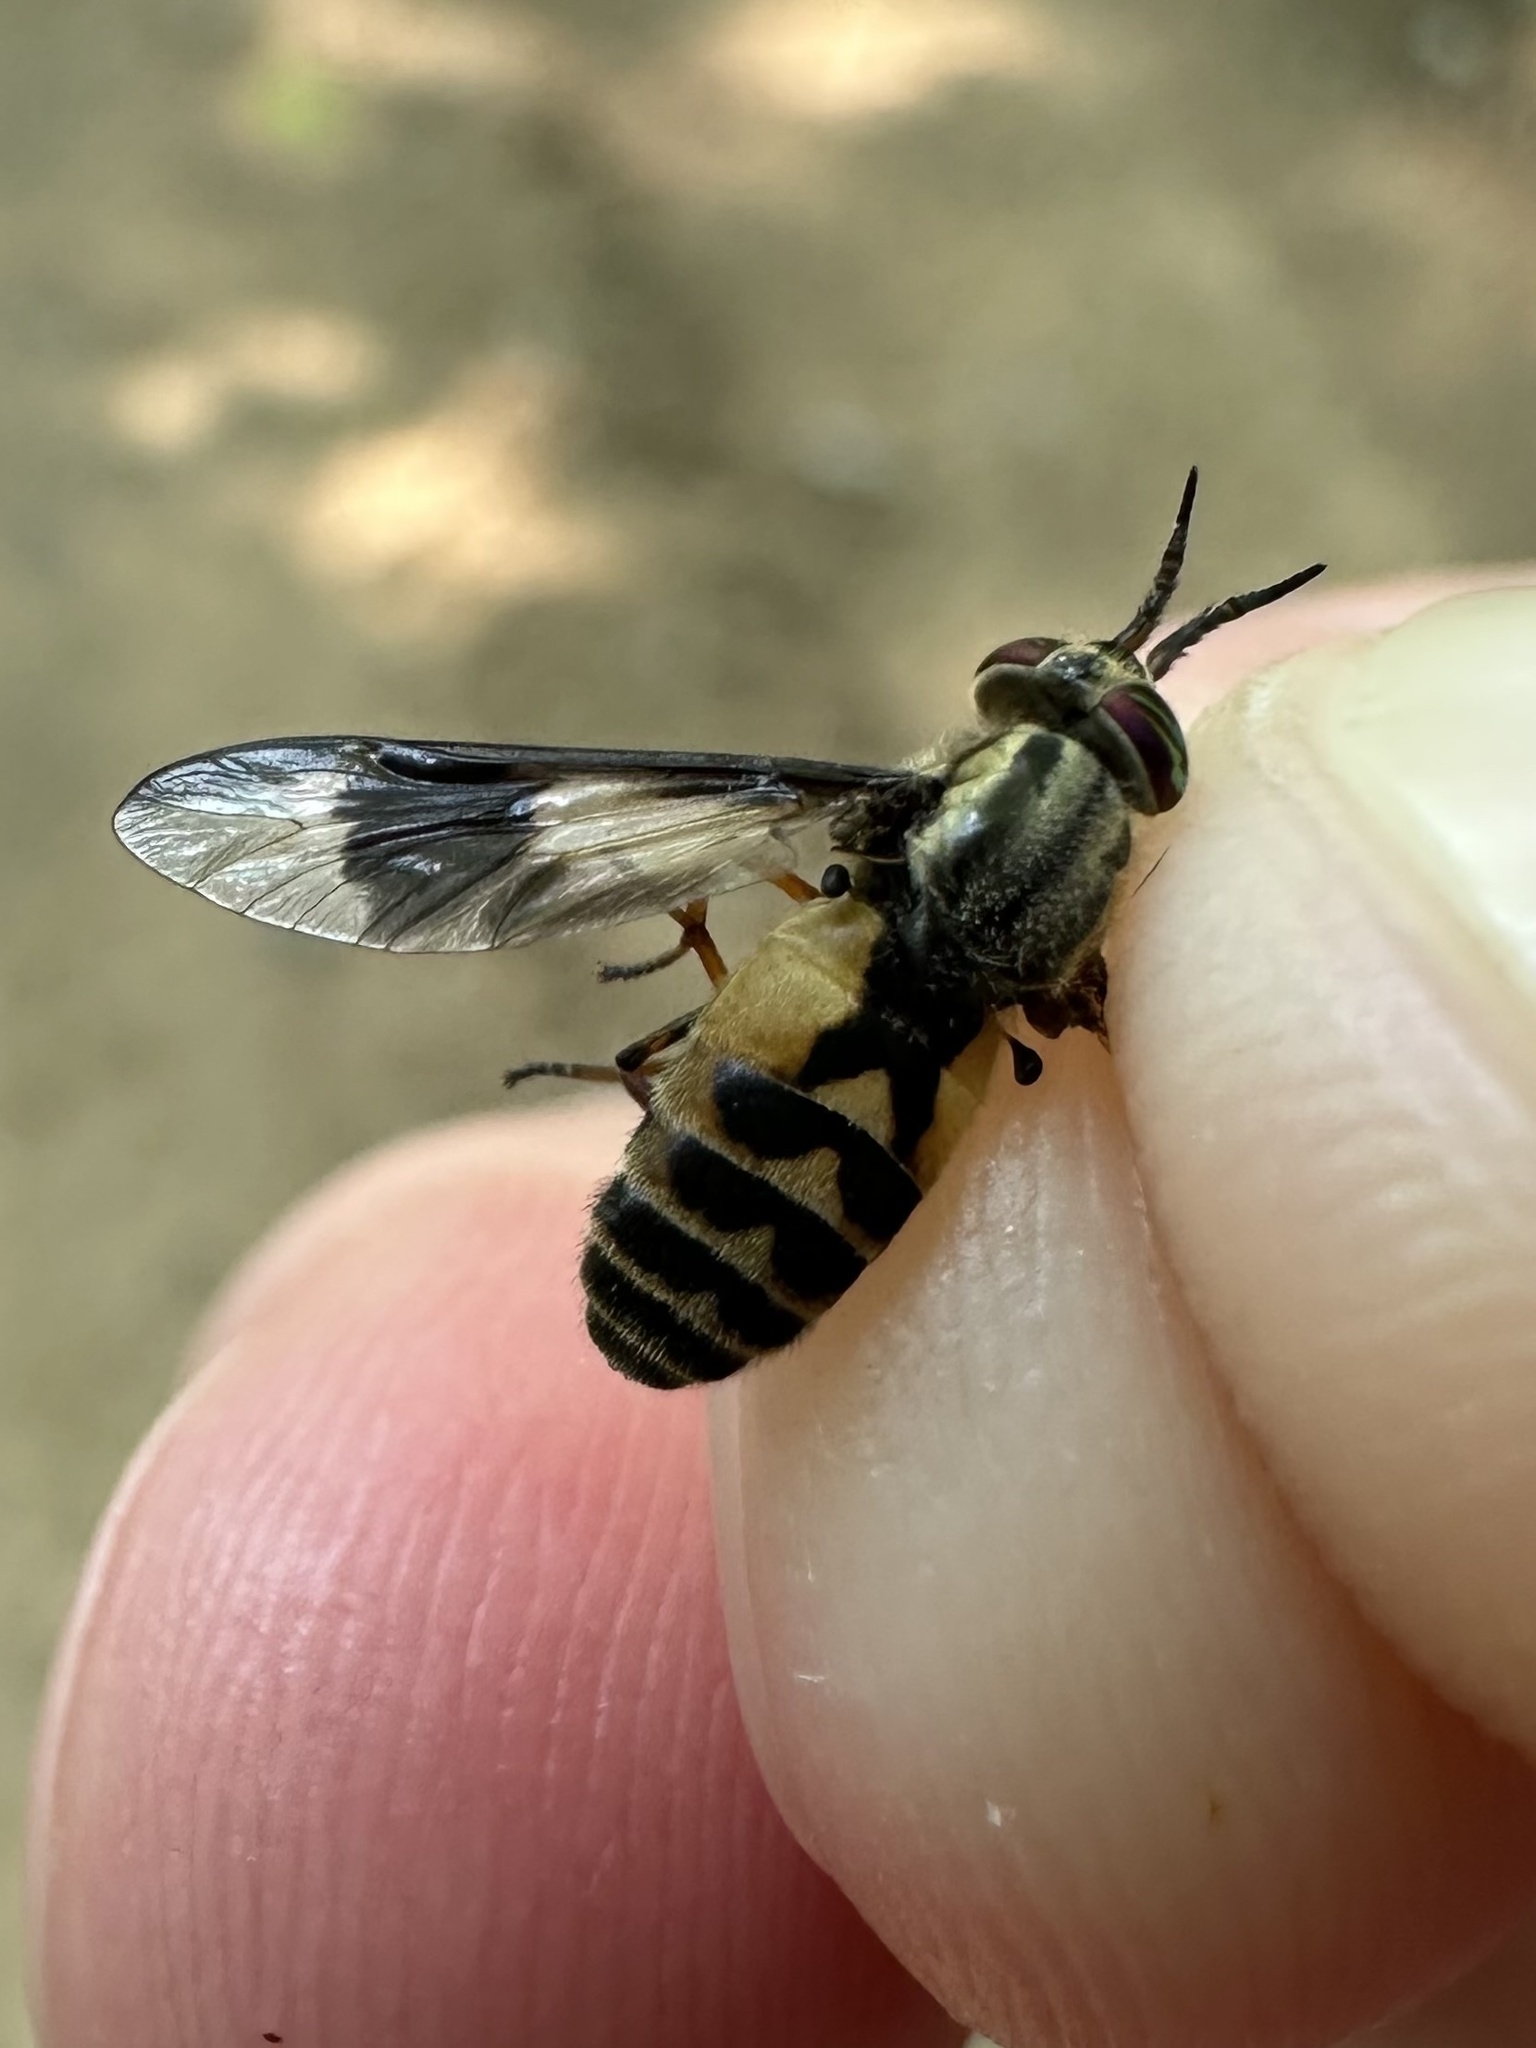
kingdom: Animalia
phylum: Arthropoda
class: Insecta
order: Diptera
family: Tabanidae
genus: Chrysops
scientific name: Chrysops sackeni
